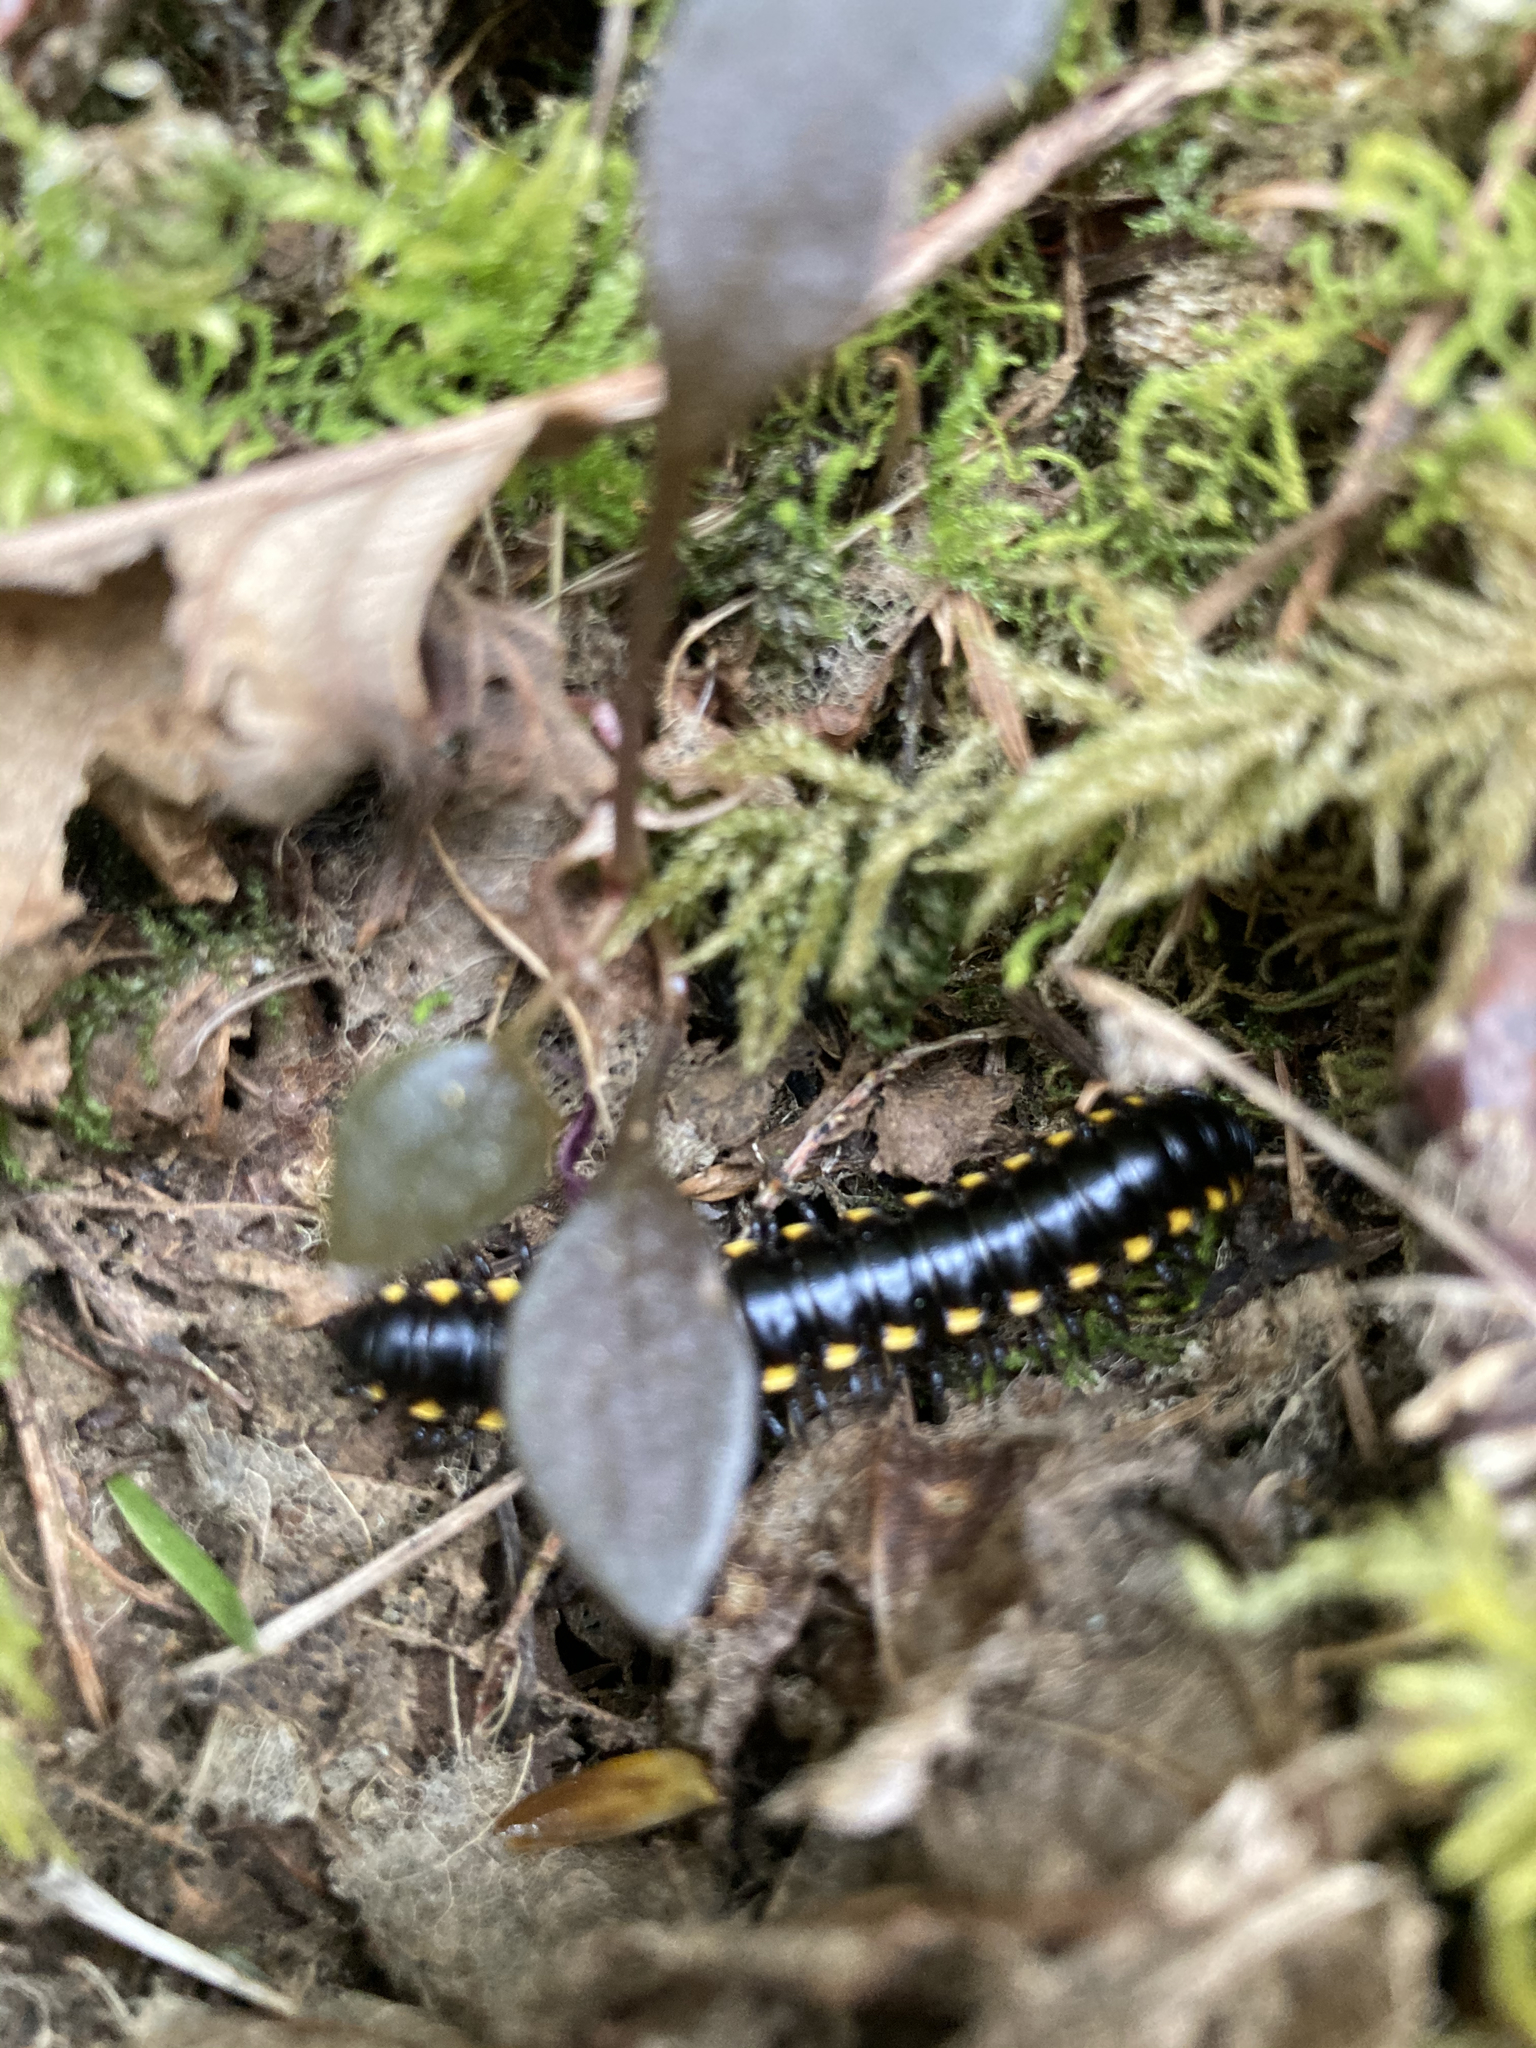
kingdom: Animalia
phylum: Arthropoda
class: Diplopoda
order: Polydesmida
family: Xystodesmidae
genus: Harpaphe
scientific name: Harpaphe haydeniana
